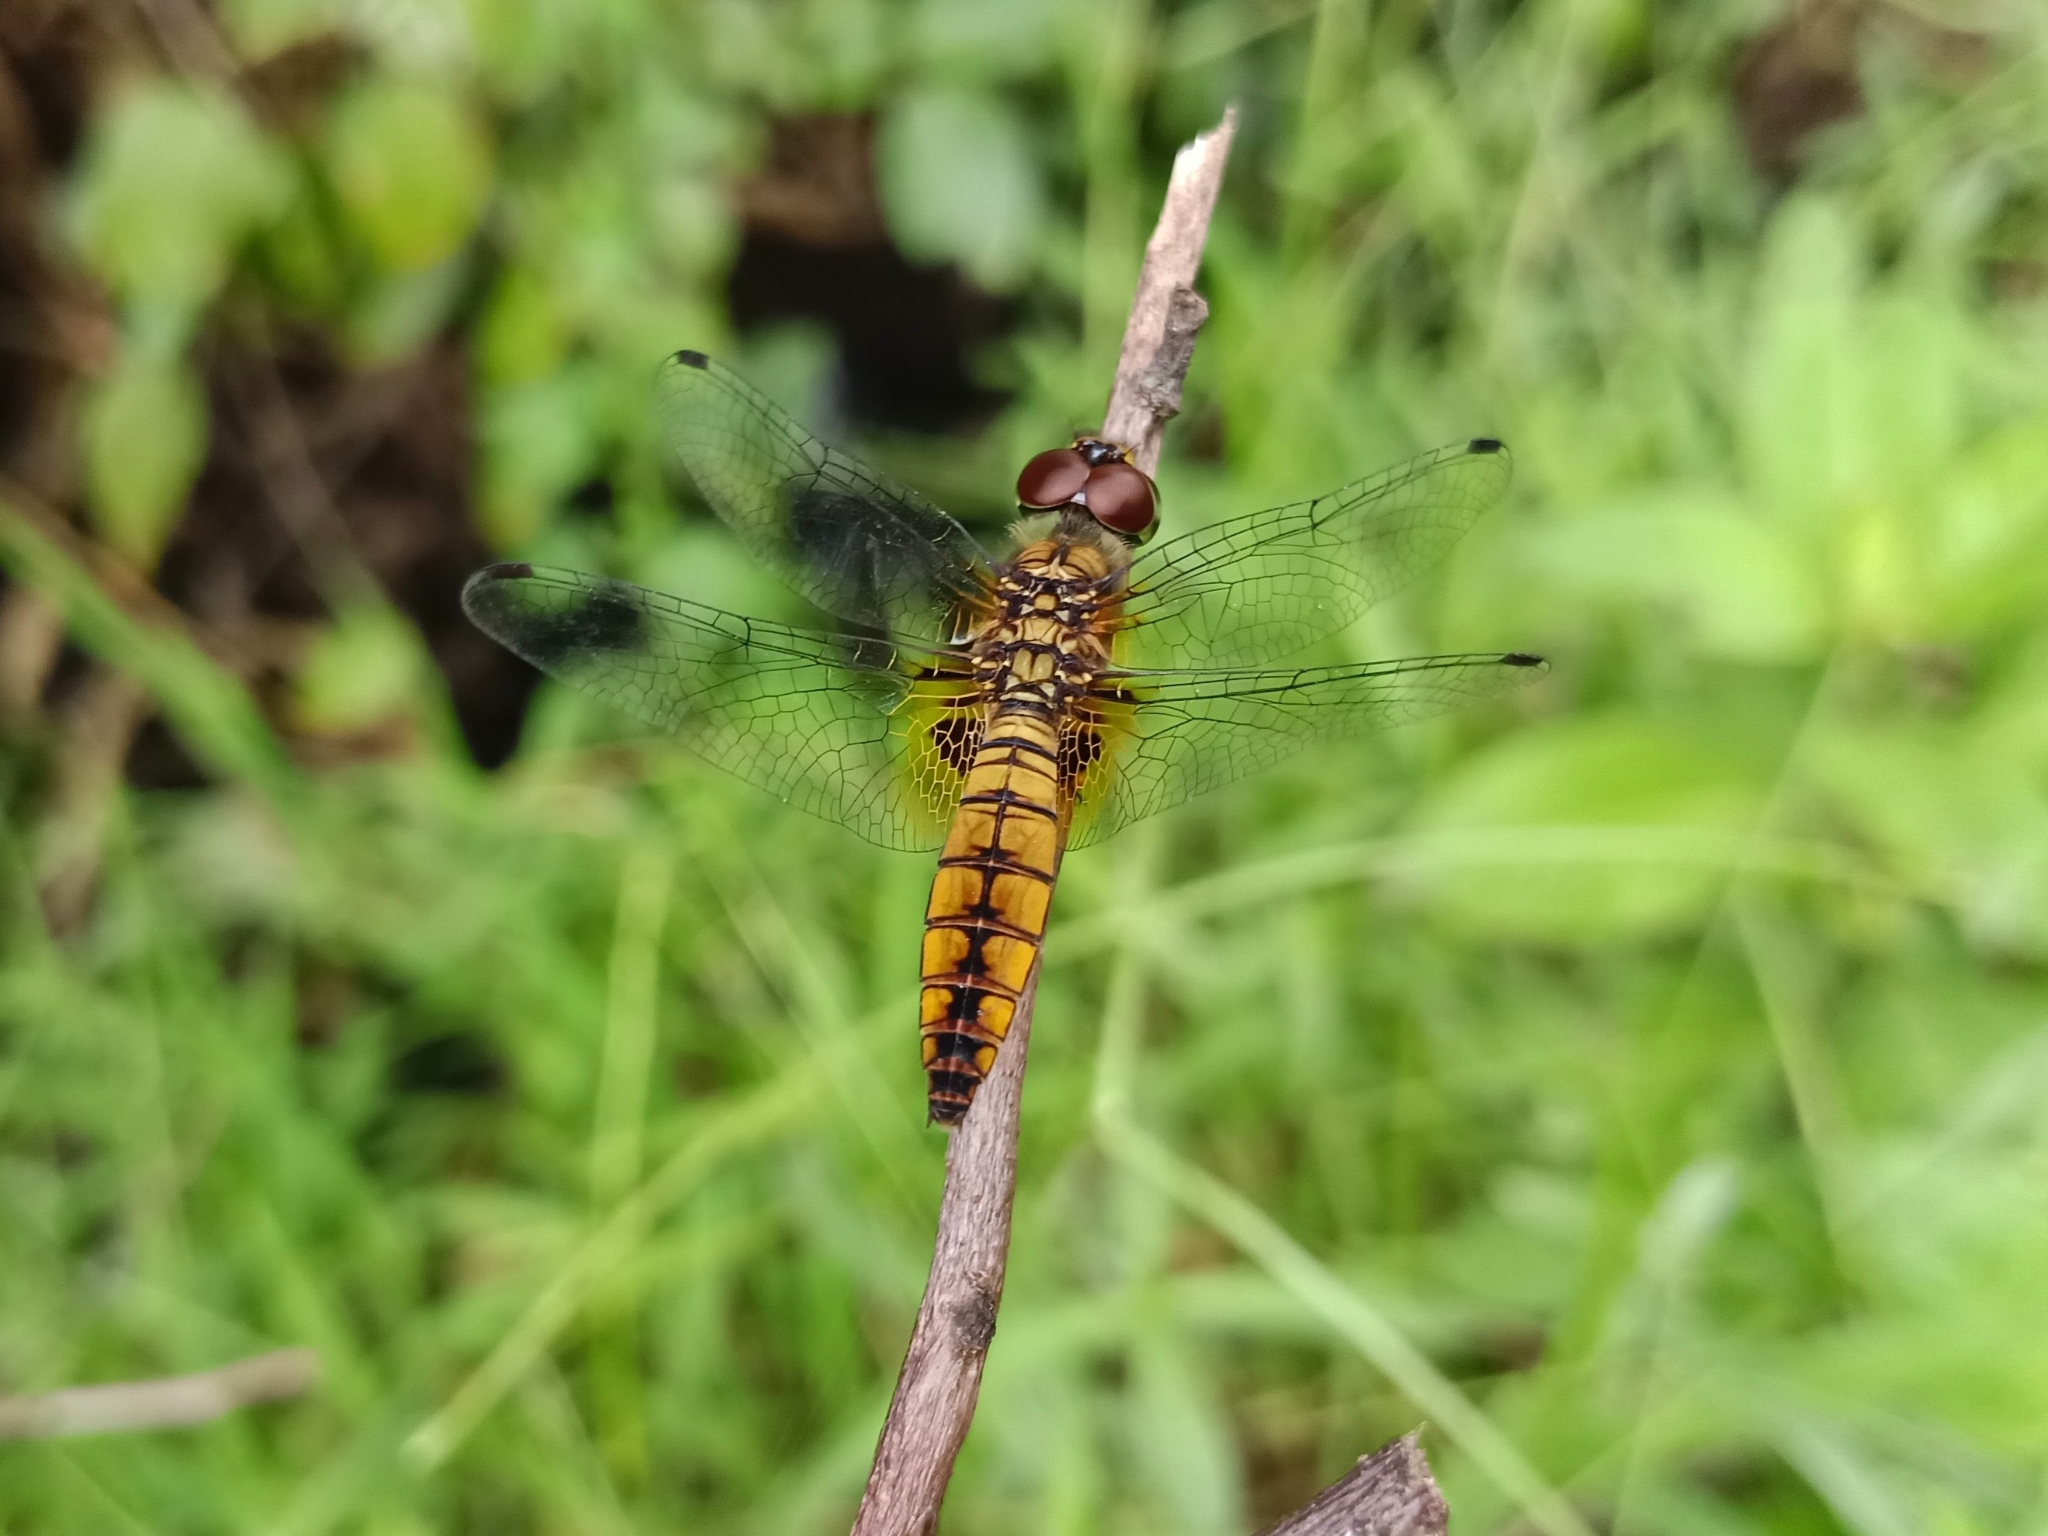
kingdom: Animalia
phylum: Arthropoda
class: Insecta
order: Odonata
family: Libellulidae
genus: Aethriamanta
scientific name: Aethriamanta brevipennis
